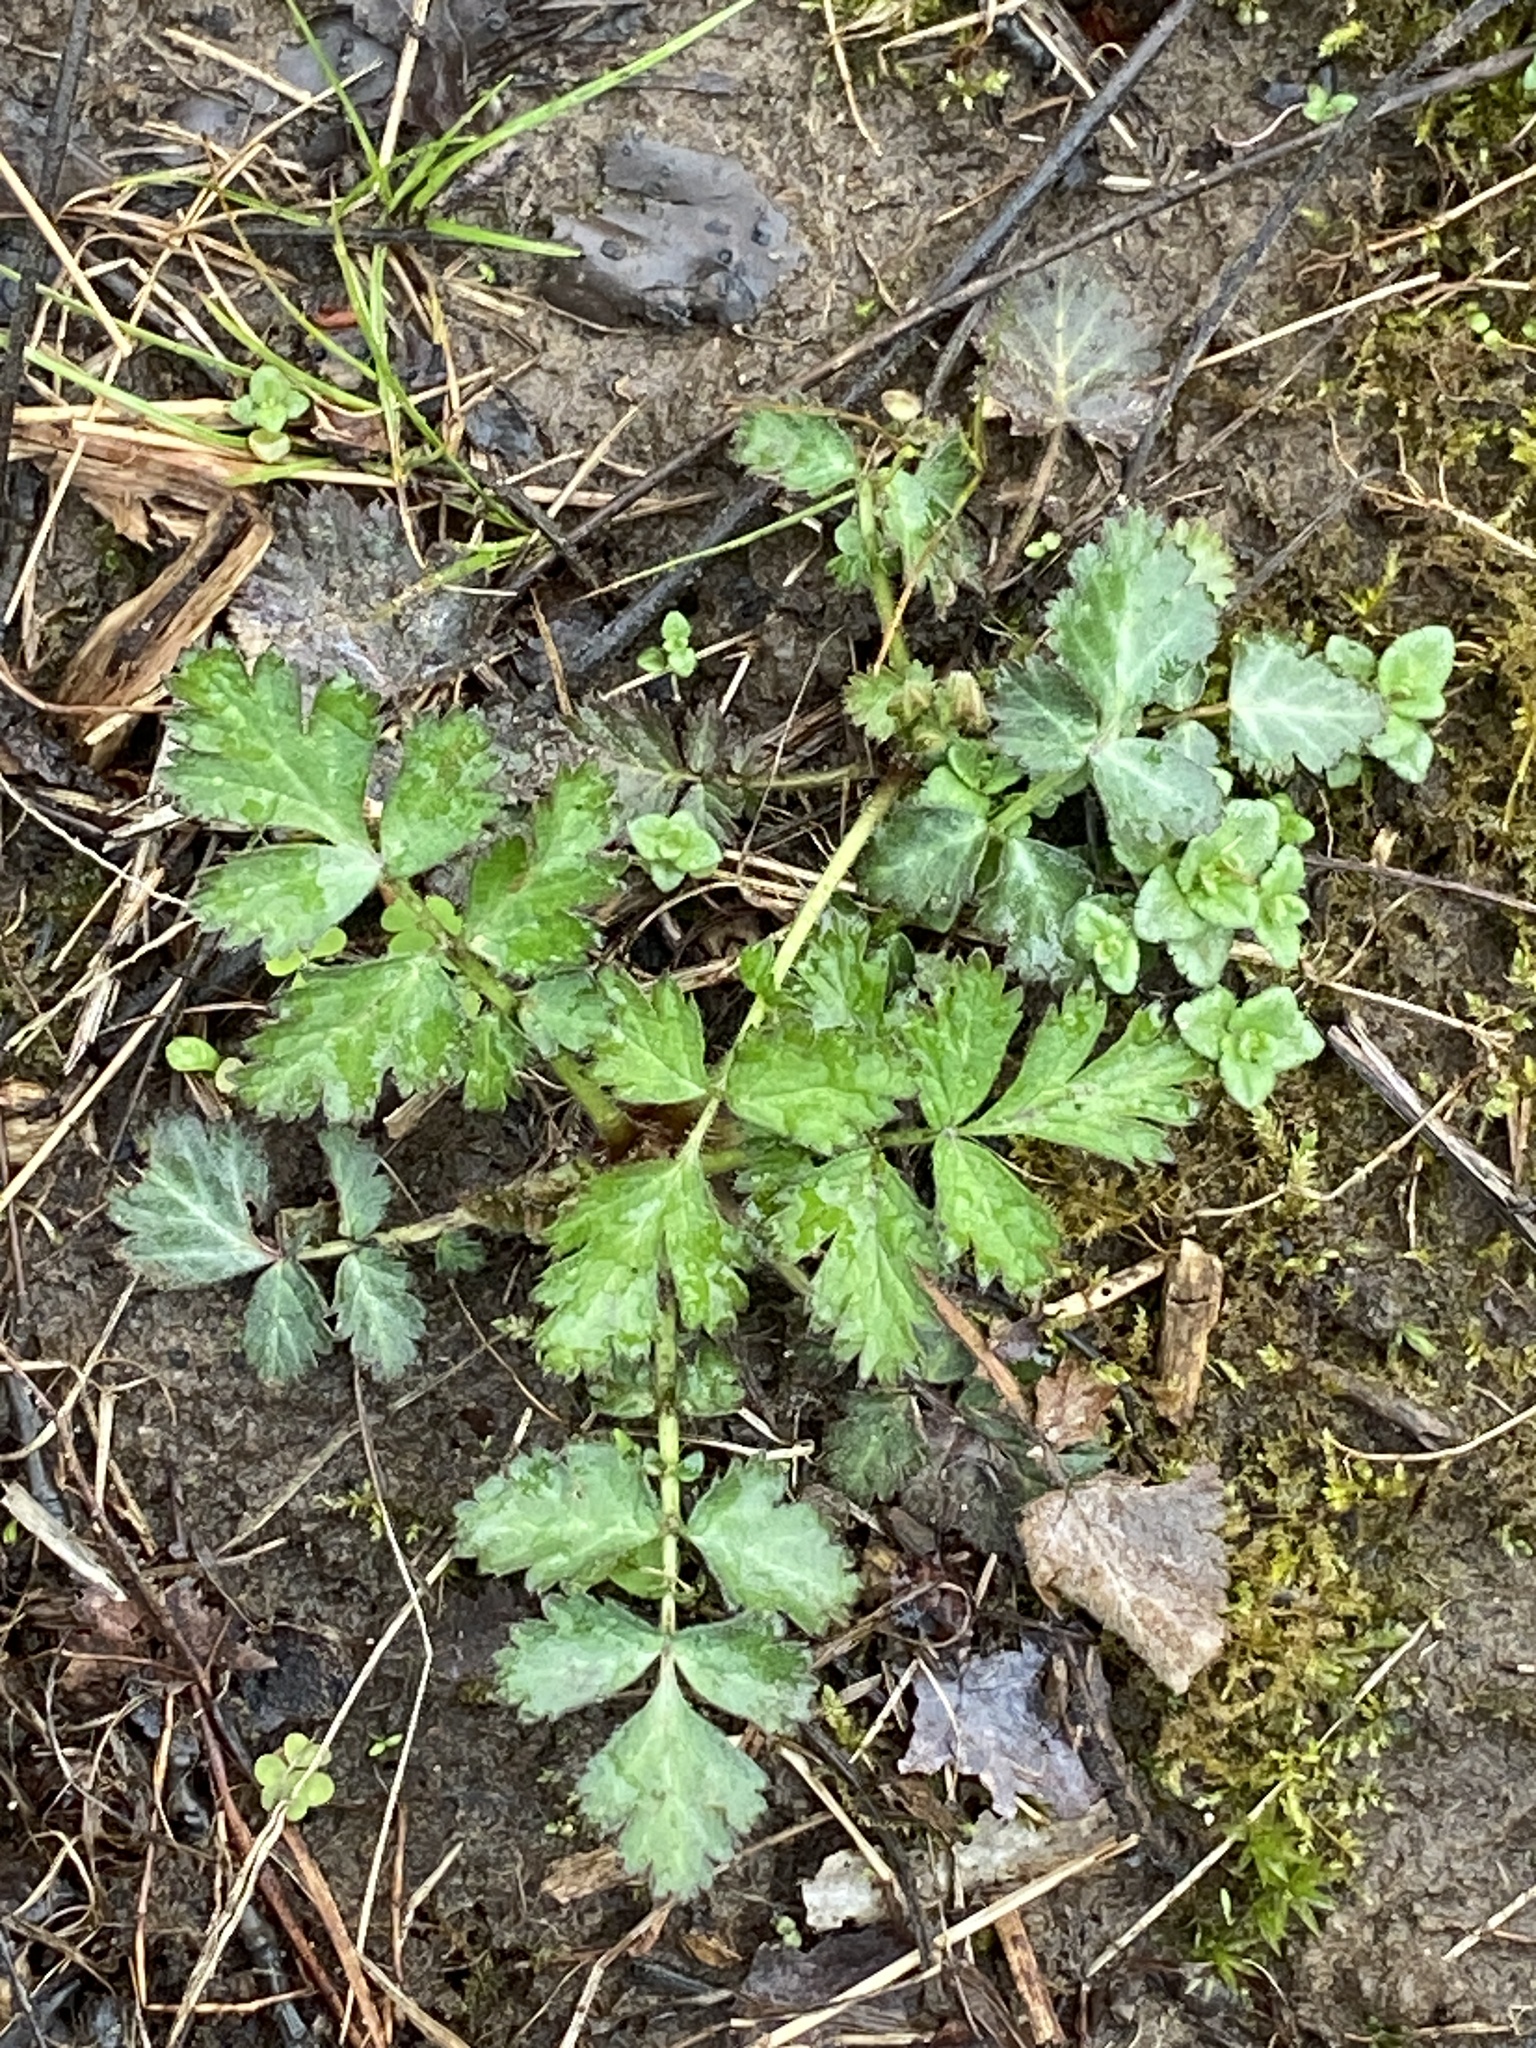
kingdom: Plantae
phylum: Tracheophyta
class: Magnoliopsida
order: Rosales
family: Rosaceae
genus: Geum
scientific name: Geum canadense
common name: White avens
